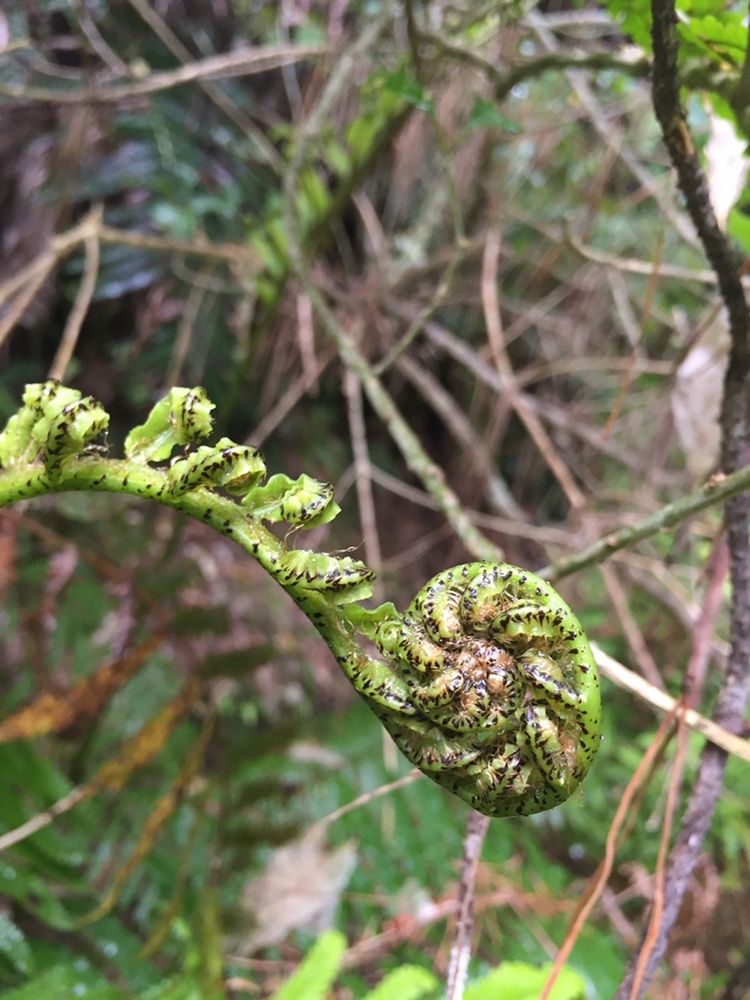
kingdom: Plantae
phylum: Tracheophyta
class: Polypodiopsida
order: Polypodiales
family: Blechnaceae
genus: Parablechnum
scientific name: Parablechnum novae-zelandiae
